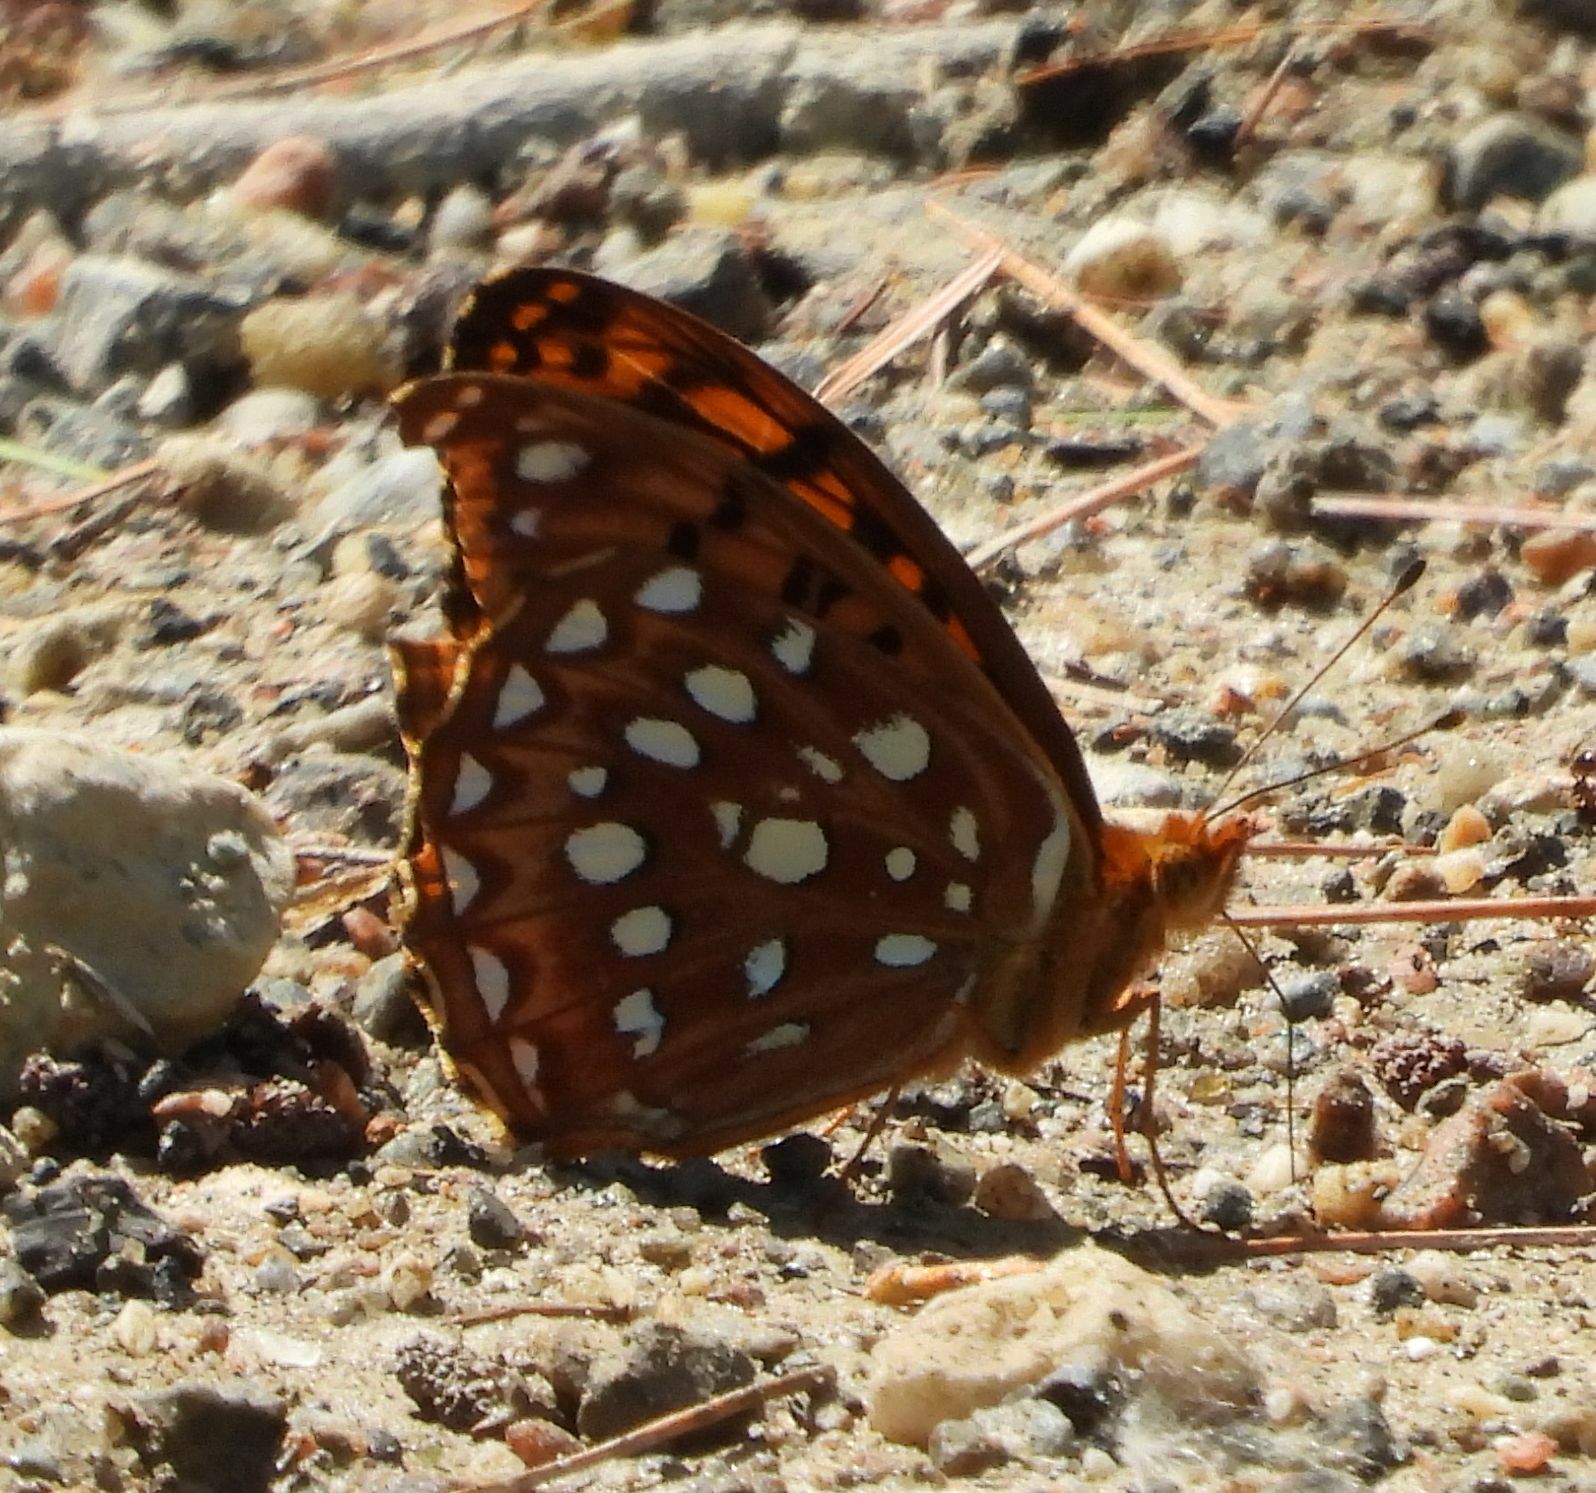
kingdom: Animalia
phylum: Arthropoda
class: Insecta
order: Lepidoptera
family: Nymphalidae
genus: Speyeria
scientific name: Speyeria aphrodite
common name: Aphrodite friitllary
